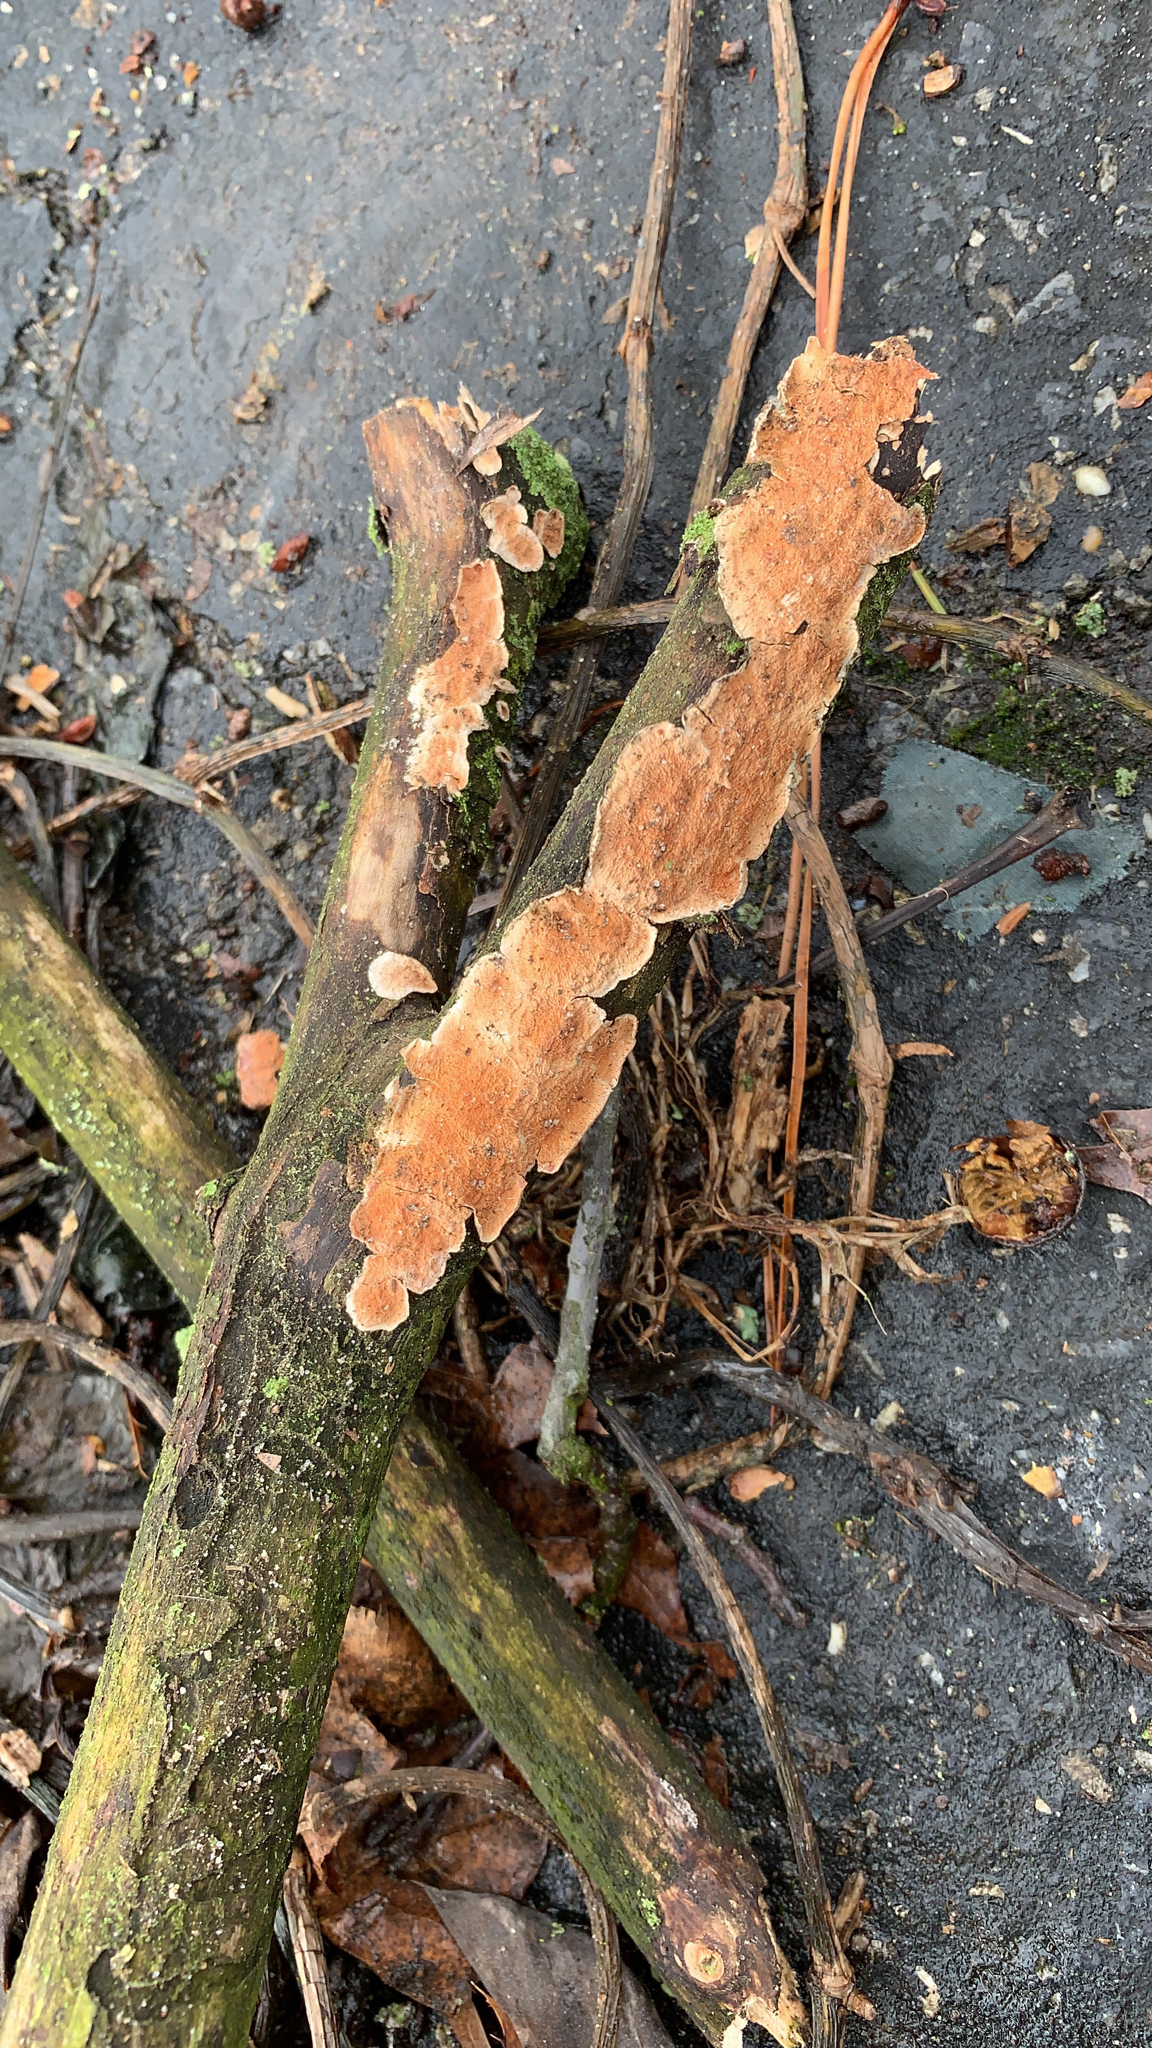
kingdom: Fungi
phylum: Basidiomycota
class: Agaricomycetes
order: Polyporales
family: Steccherinaceae
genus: Steccherinum
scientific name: Steccherinum ochraceum
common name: Ochre spreading tooth
